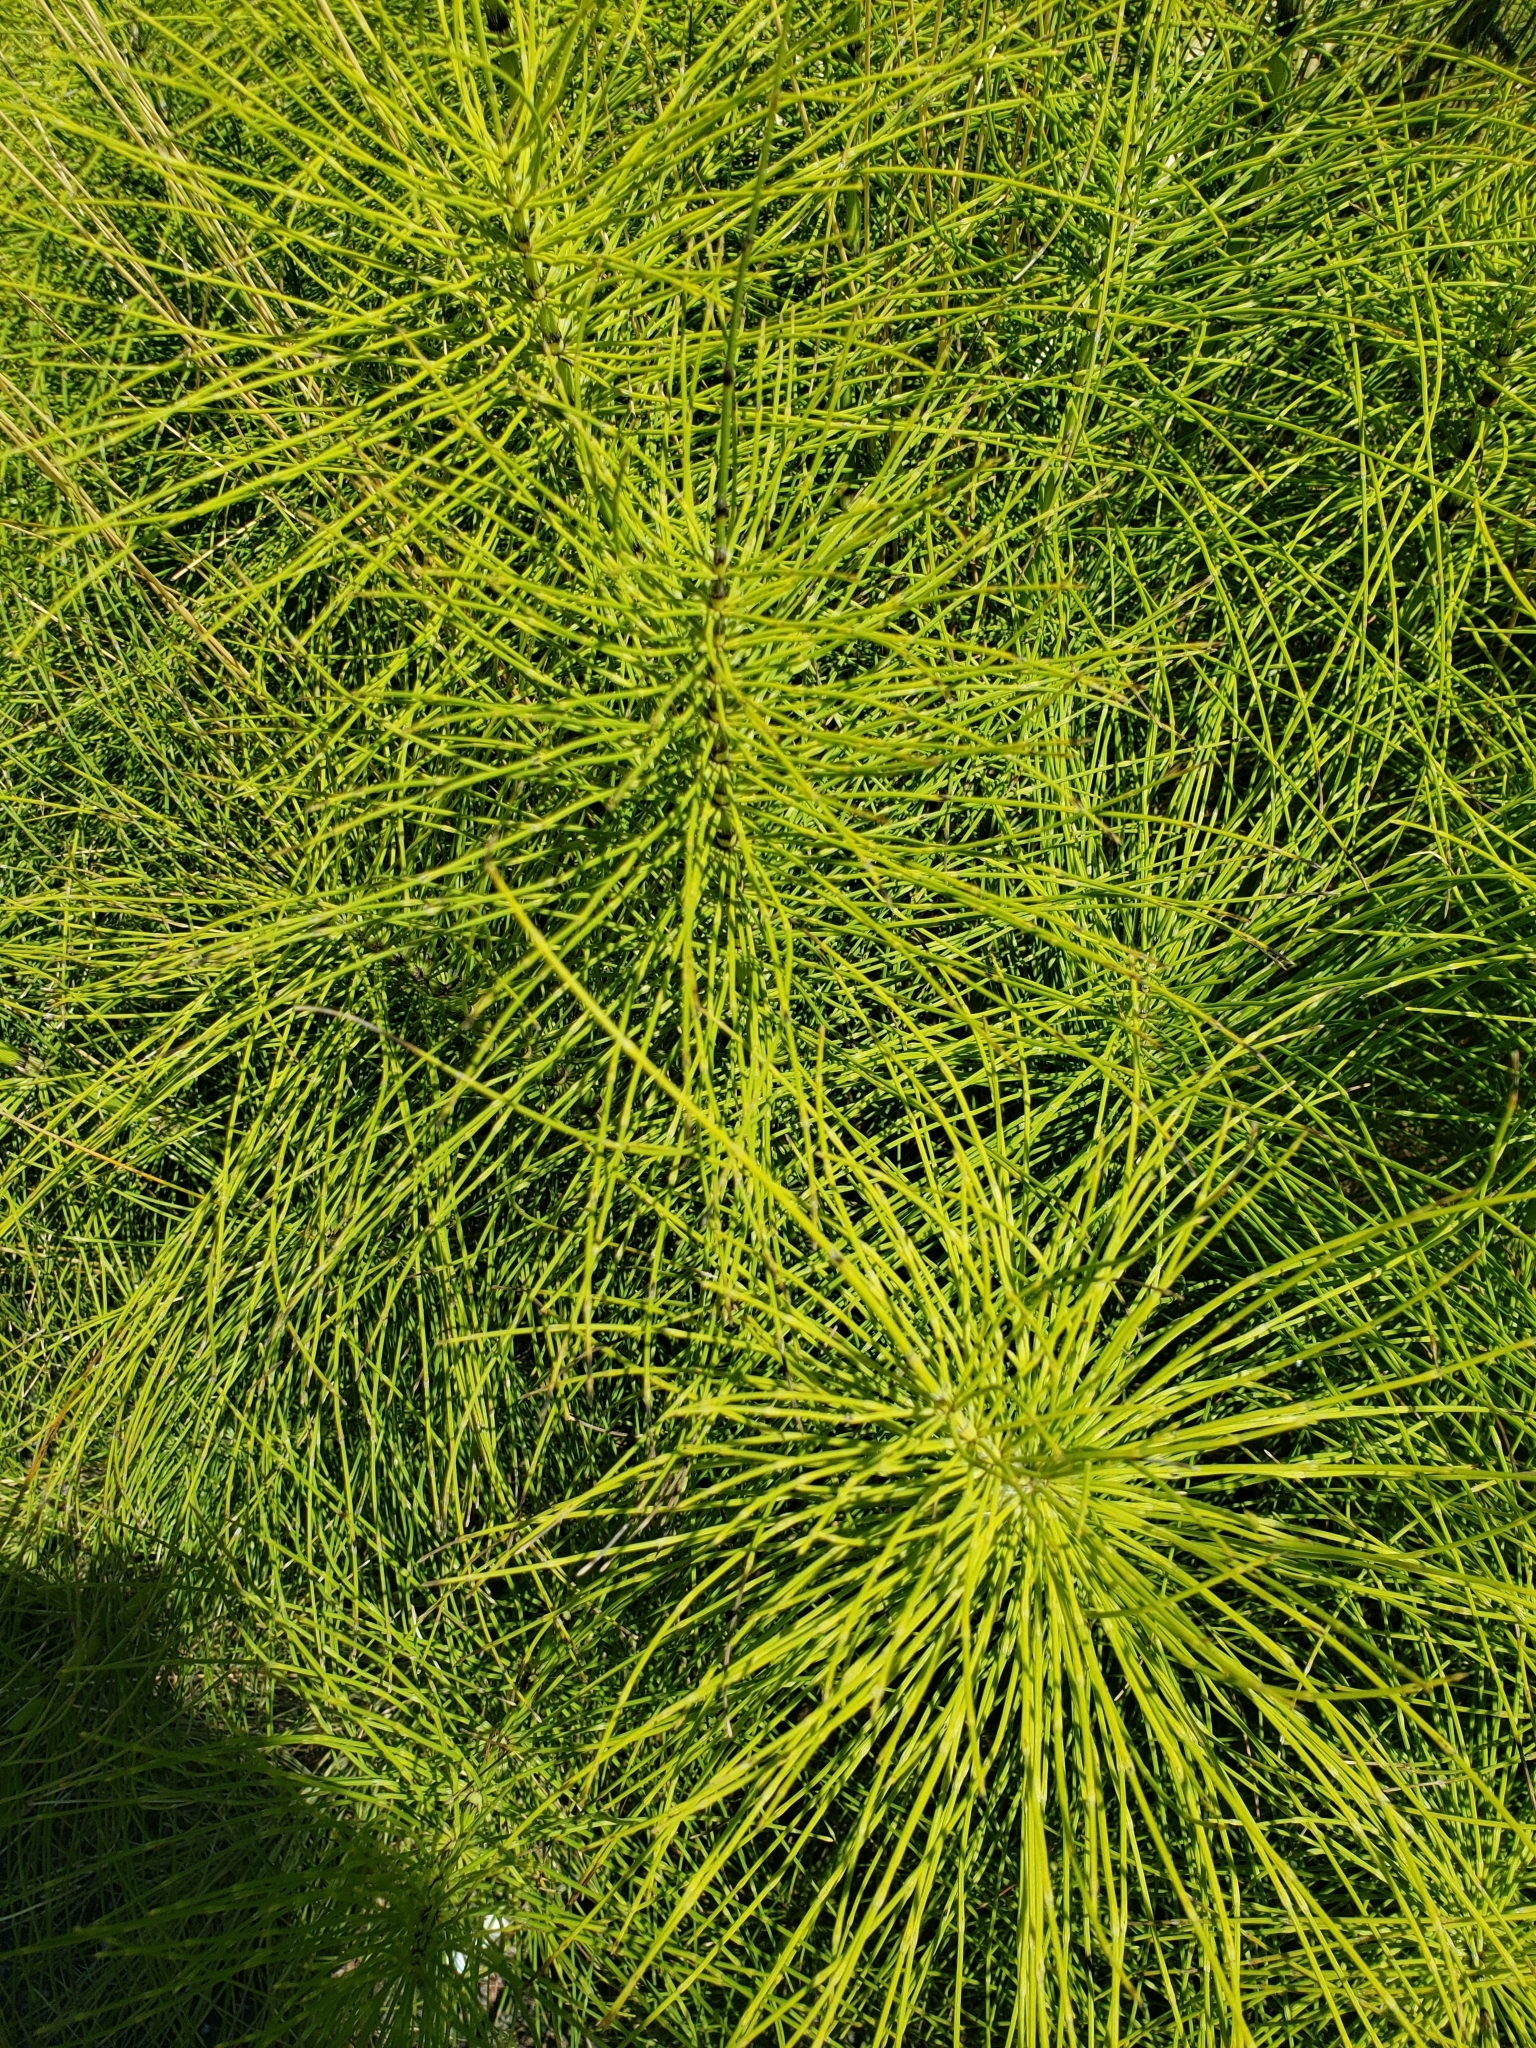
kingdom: Plantae
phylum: Tracheophyta
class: Polypodiopsida
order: Equisetales
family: Equisetaceae
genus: Equisetum
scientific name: Equisetum telmateia
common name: Great horsetail
